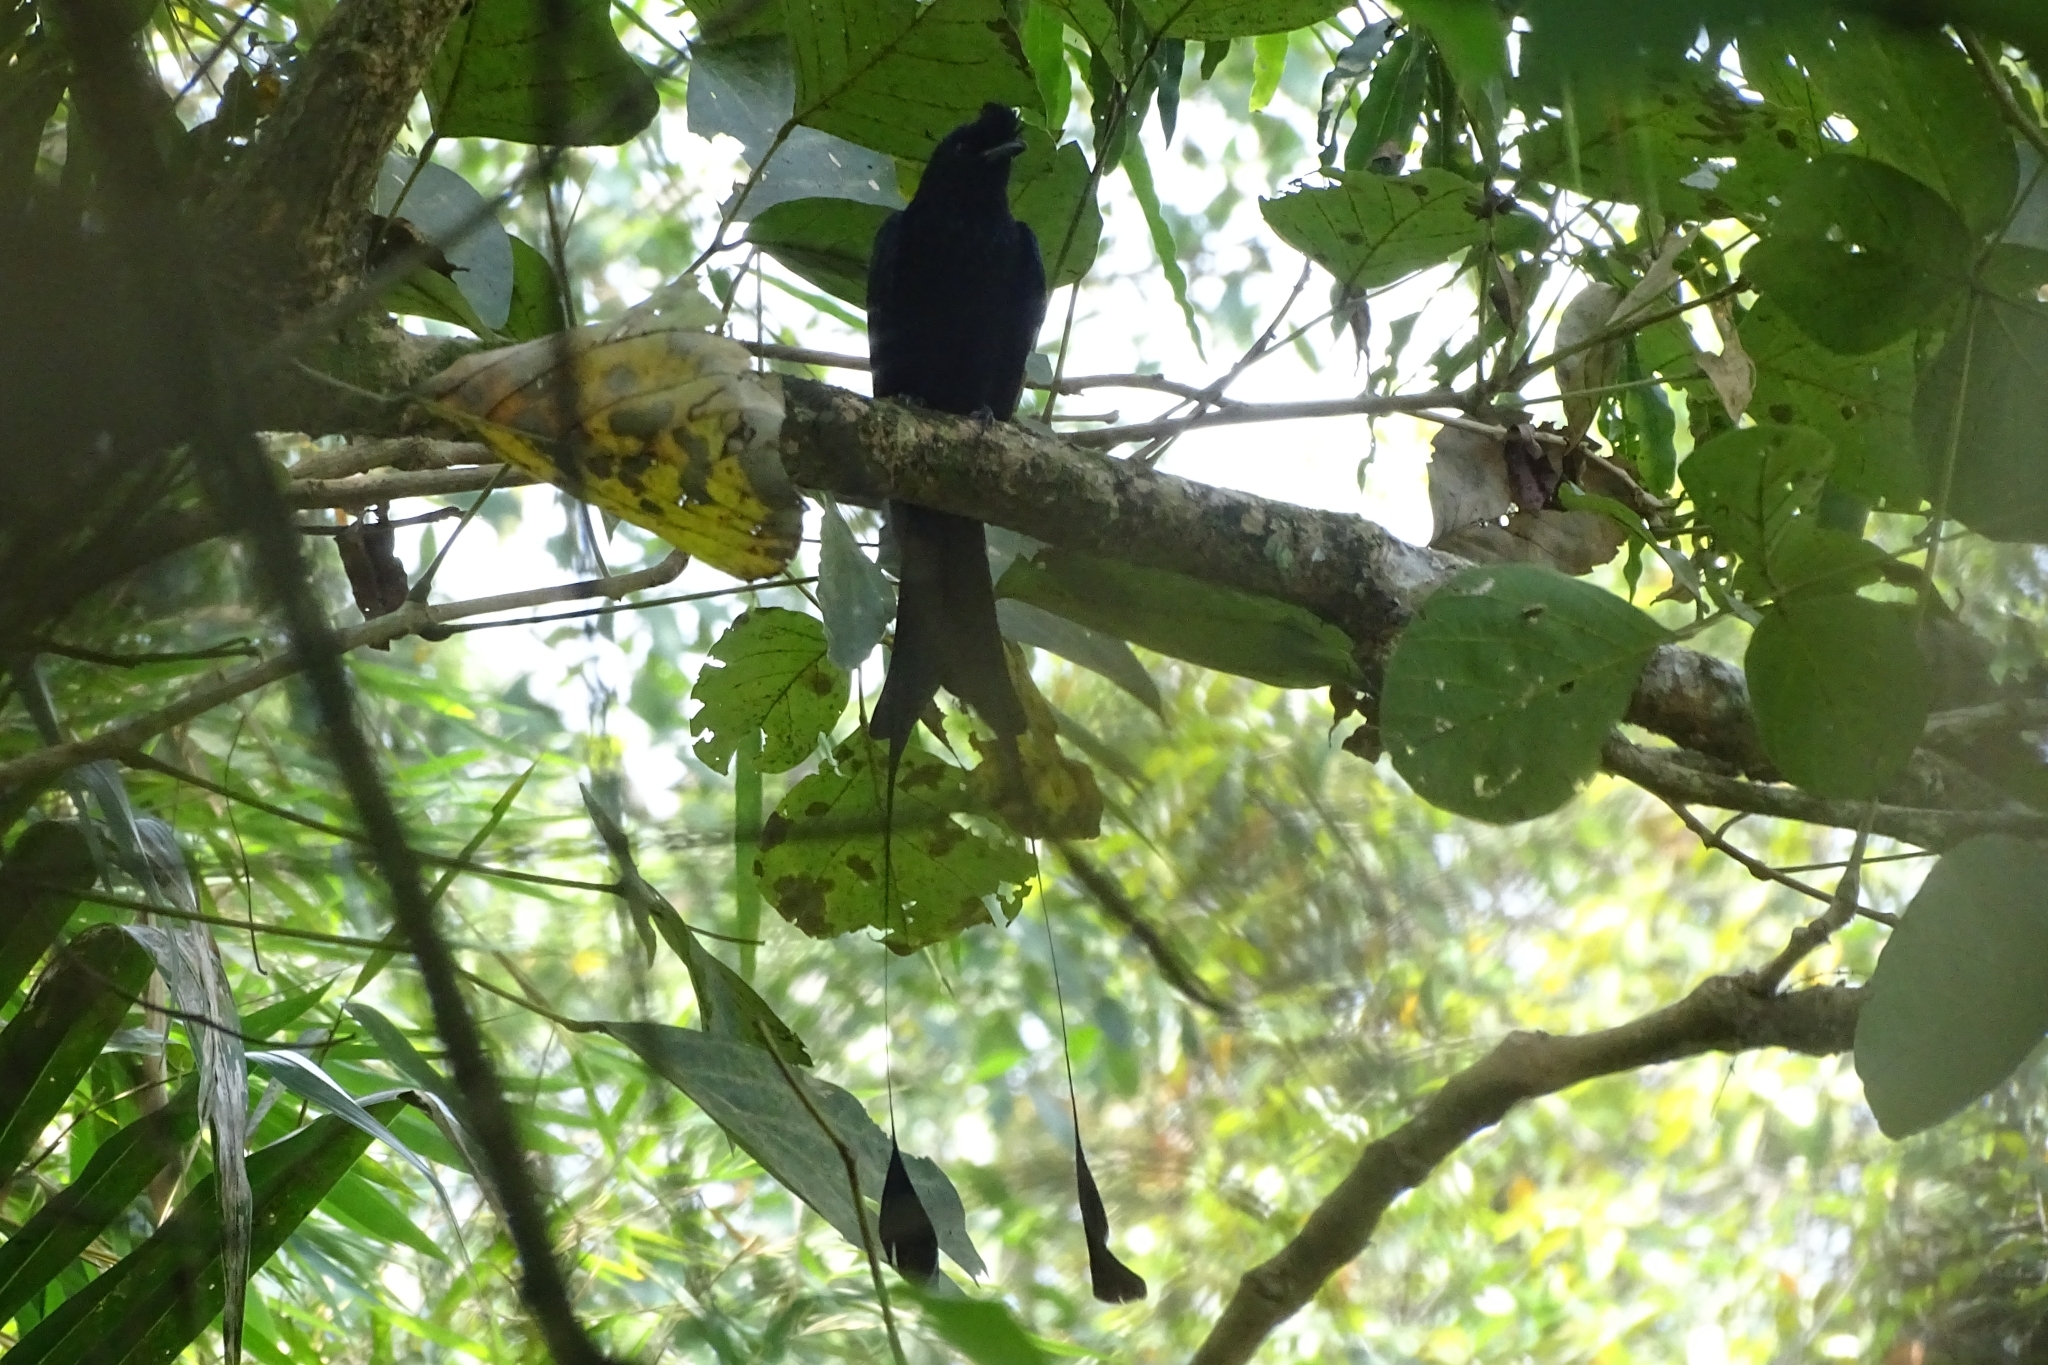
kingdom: Animalia
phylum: Chordata
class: Aves
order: Passeriformes
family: Dicruridae
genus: Dicrurus
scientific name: Dicrurus paradiseus
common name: Greater racket-tailed drongo
